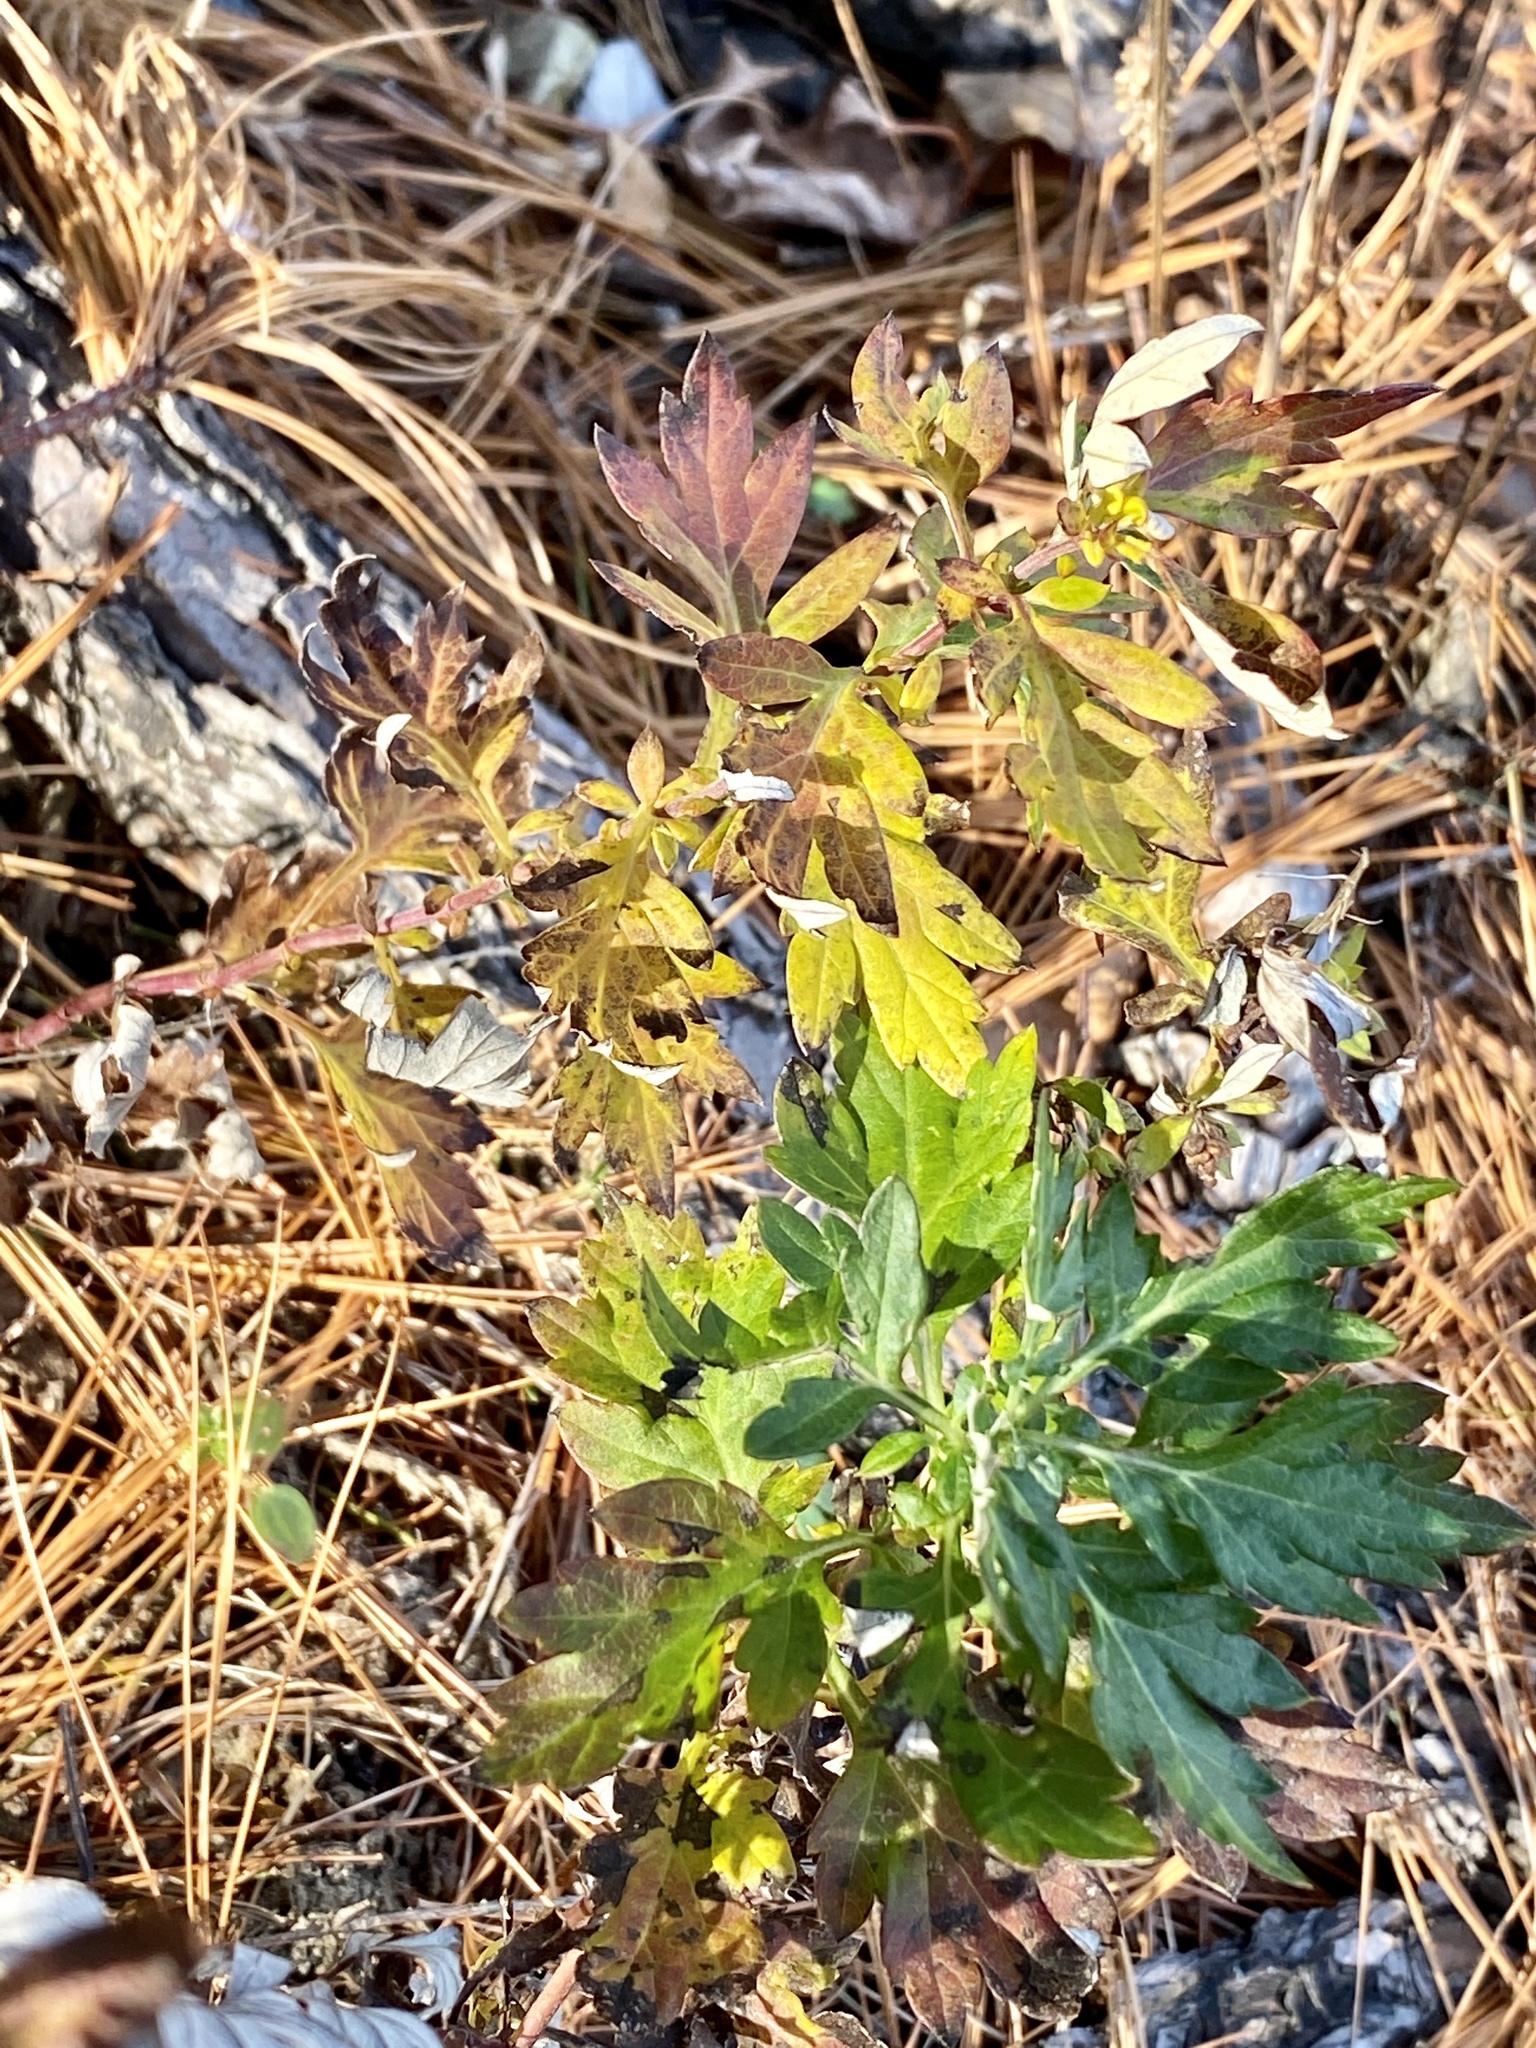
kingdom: Plantae
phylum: Tracheophyta
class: Magnoliopsida
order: Asterales
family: Asteraceae
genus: Artemisia
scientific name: Artemisia vulgaris
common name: Mugwort
